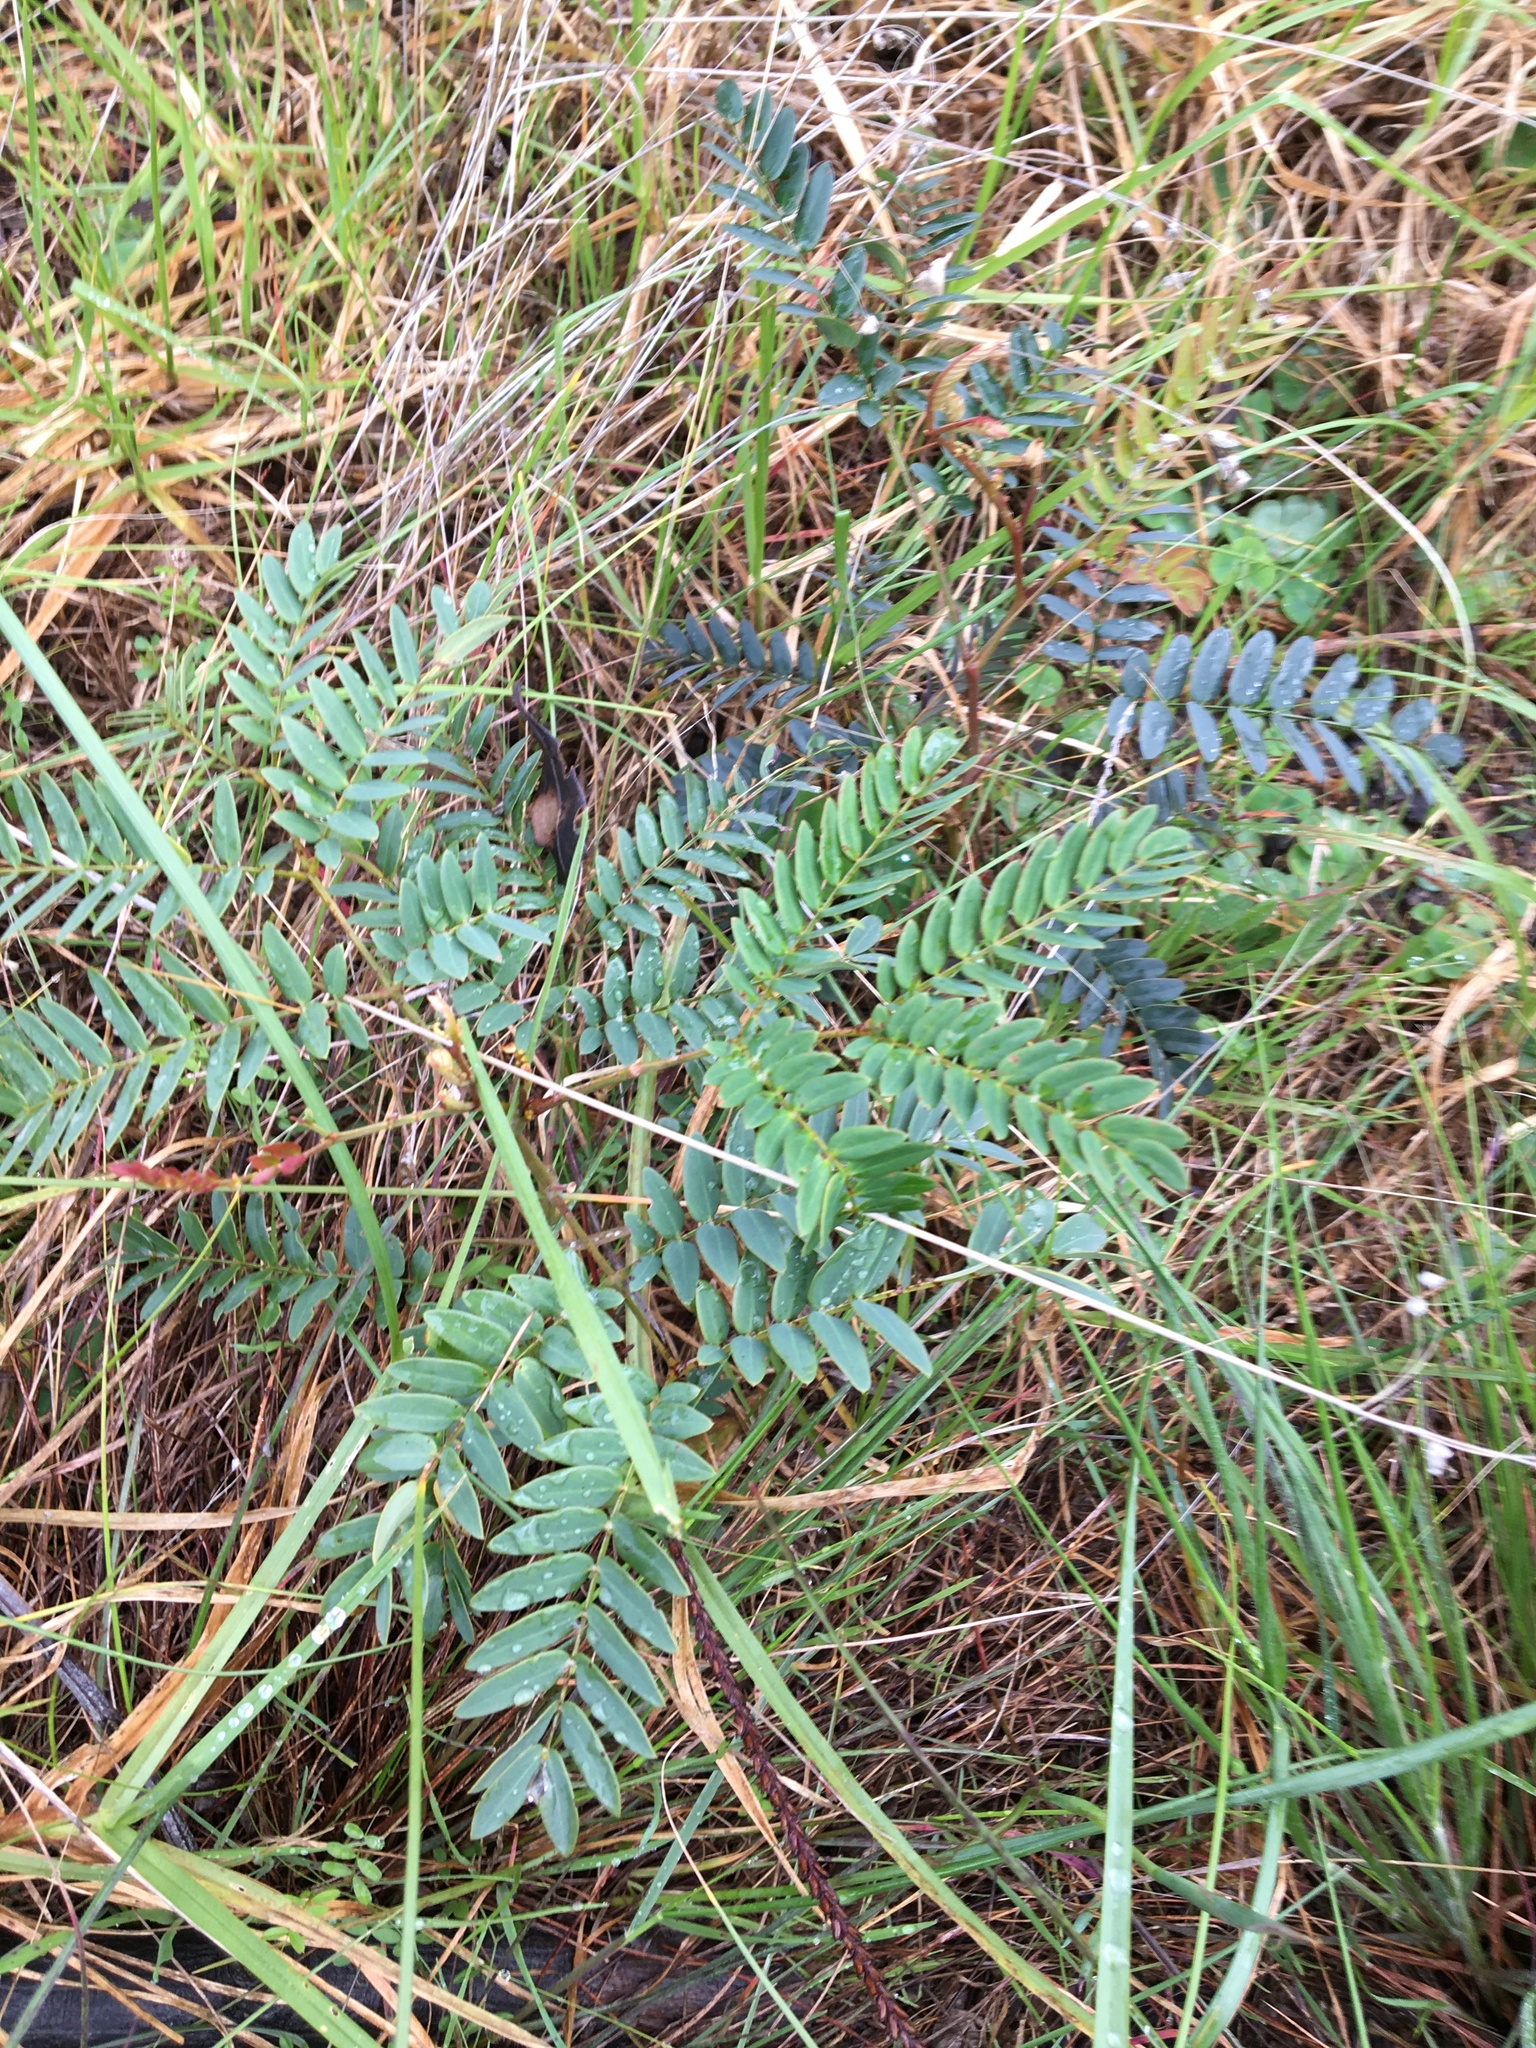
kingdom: Plantae
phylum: Tracheophyta
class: Magnoliopsida
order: Fabales
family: Fabaceae
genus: Acacia
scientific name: Acacia elata
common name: Cedar wattle
